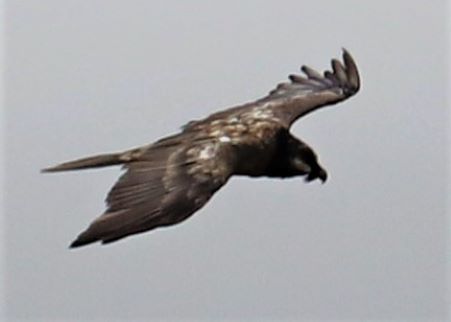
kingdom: Animalia
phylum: Chordata
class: Aves
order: Accipitriformes
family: Accipitridae
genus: Gypaetus
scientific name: Gypaetus barbatus
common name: Bearded vulture
